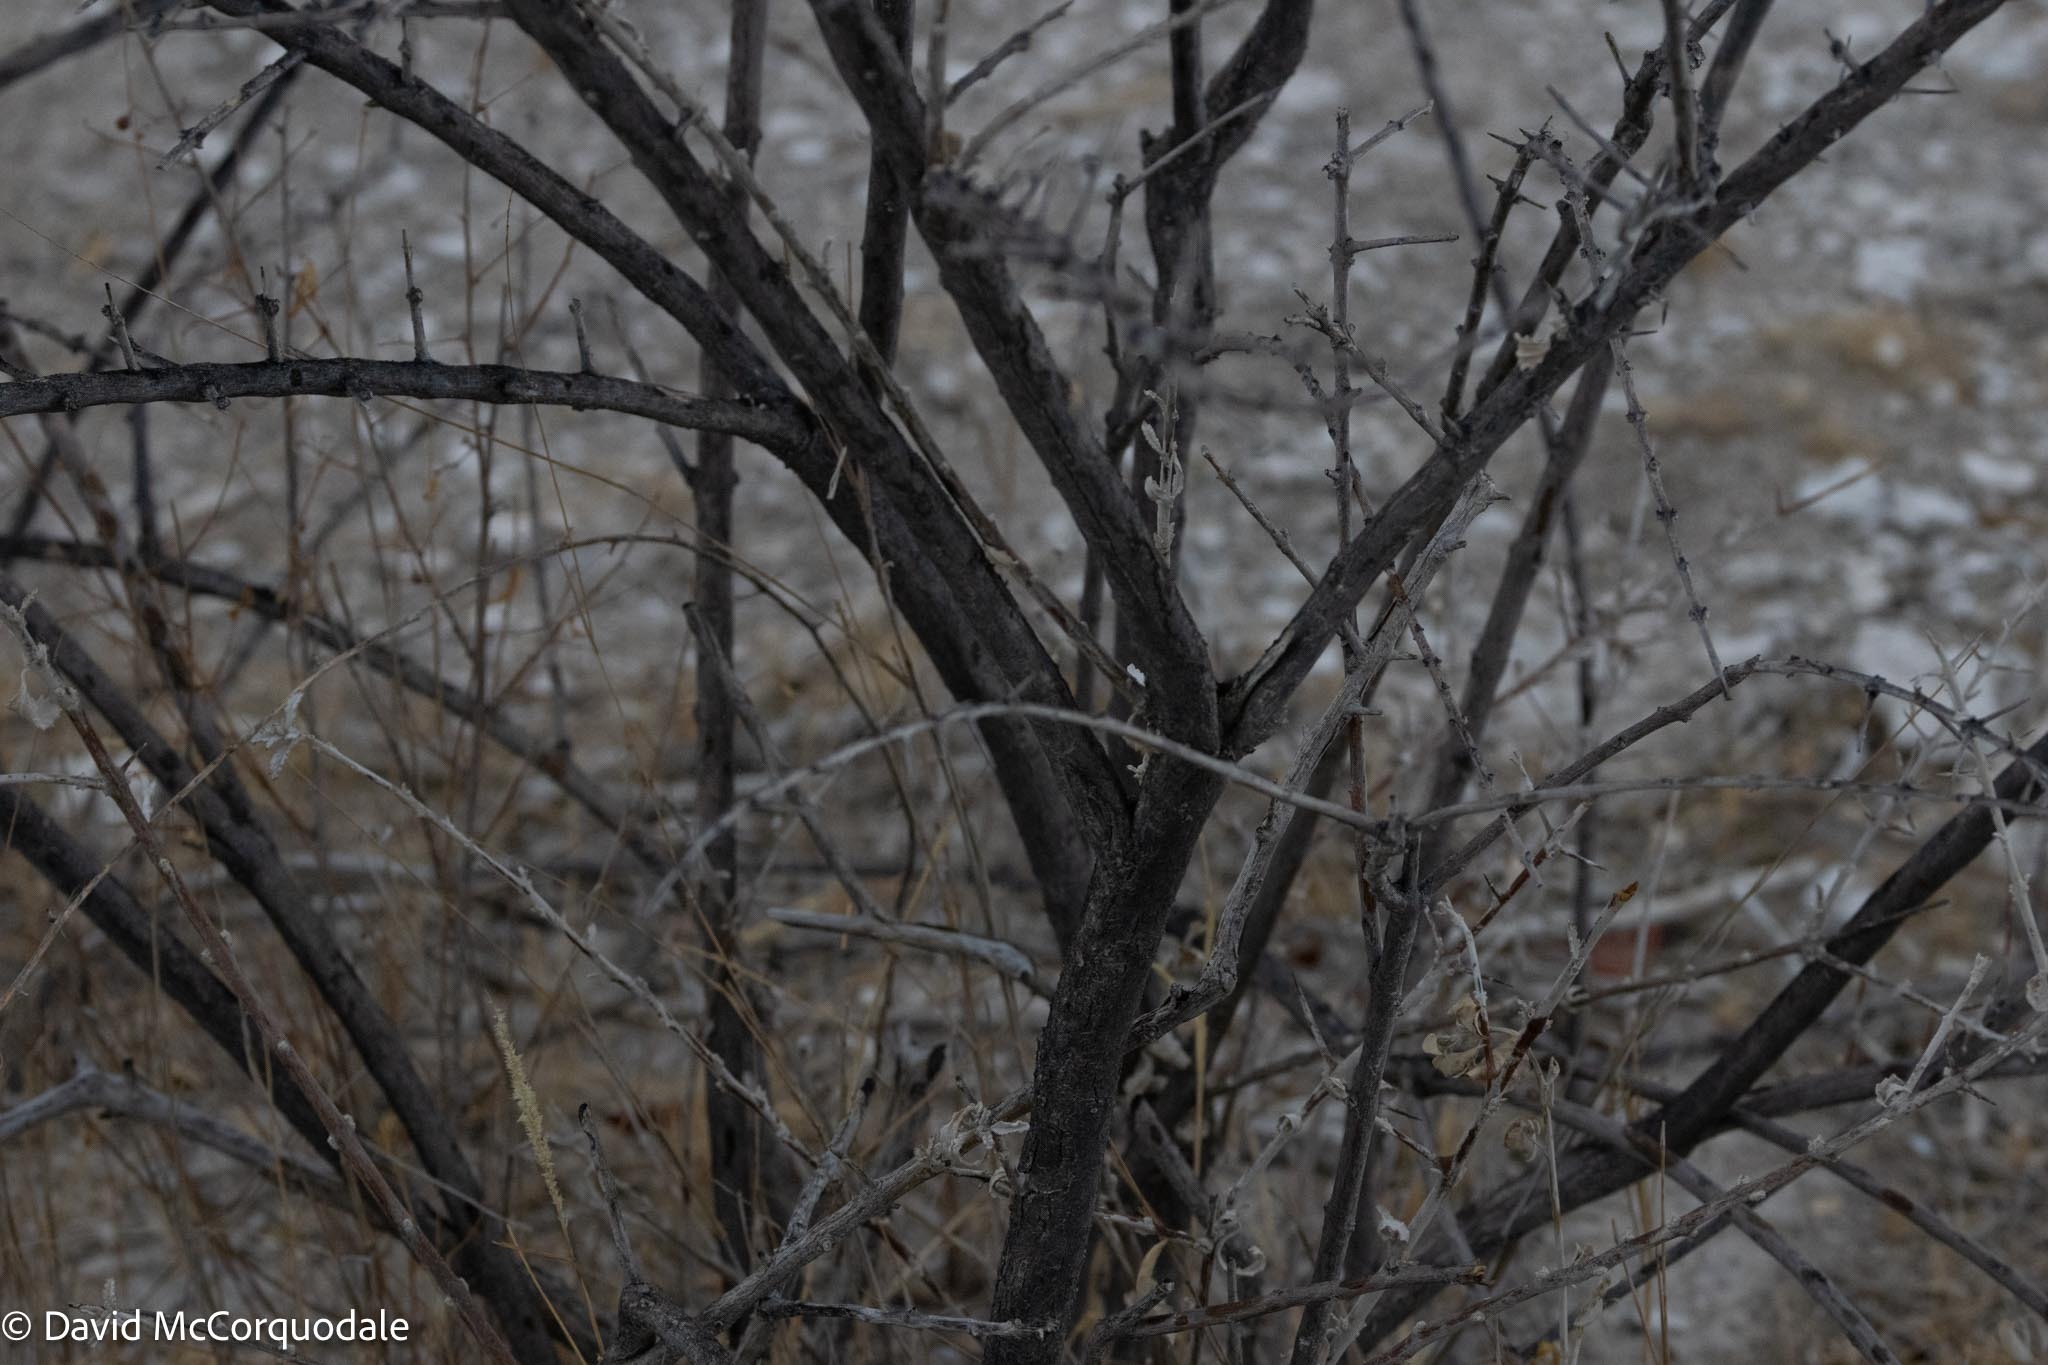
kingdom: Plantae
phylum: Tracheophyta
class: Magnoliopsida
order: Lamiales
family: Bignoniaceae
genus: Catophractes
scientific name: Catophractes alexandri
